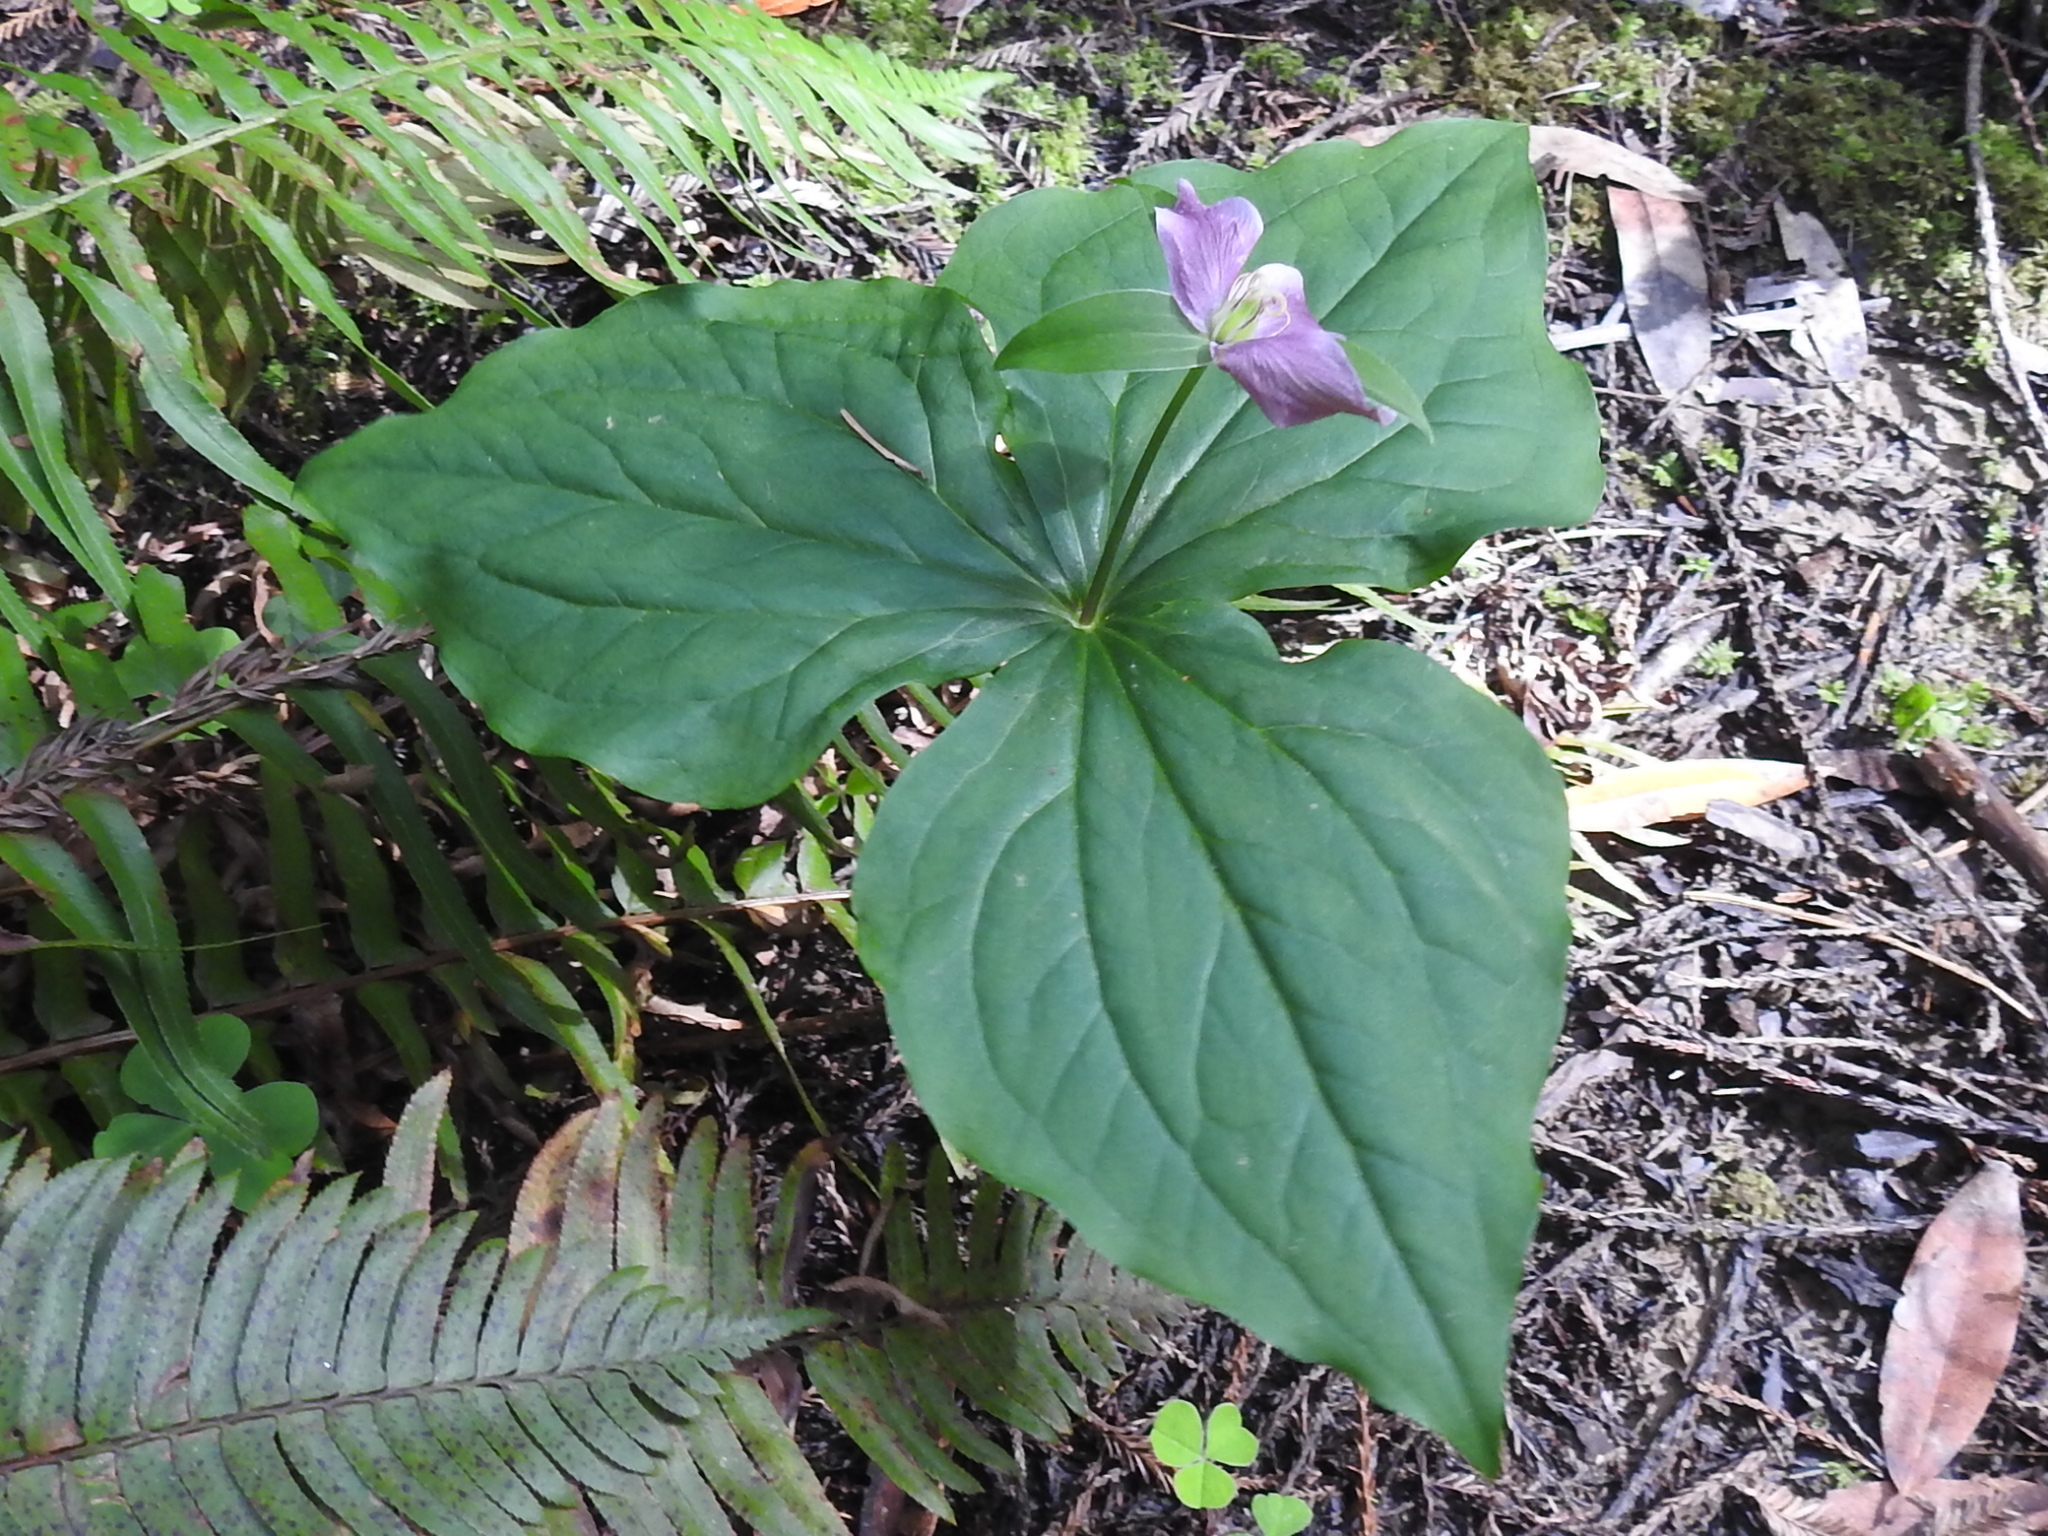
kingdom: Plantae
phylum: Tracheophyta
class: Liliopsida
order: Liliales
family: Melanthiaceae
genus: Trillium
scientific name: Trillium ovatum
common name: Pacific trillium
